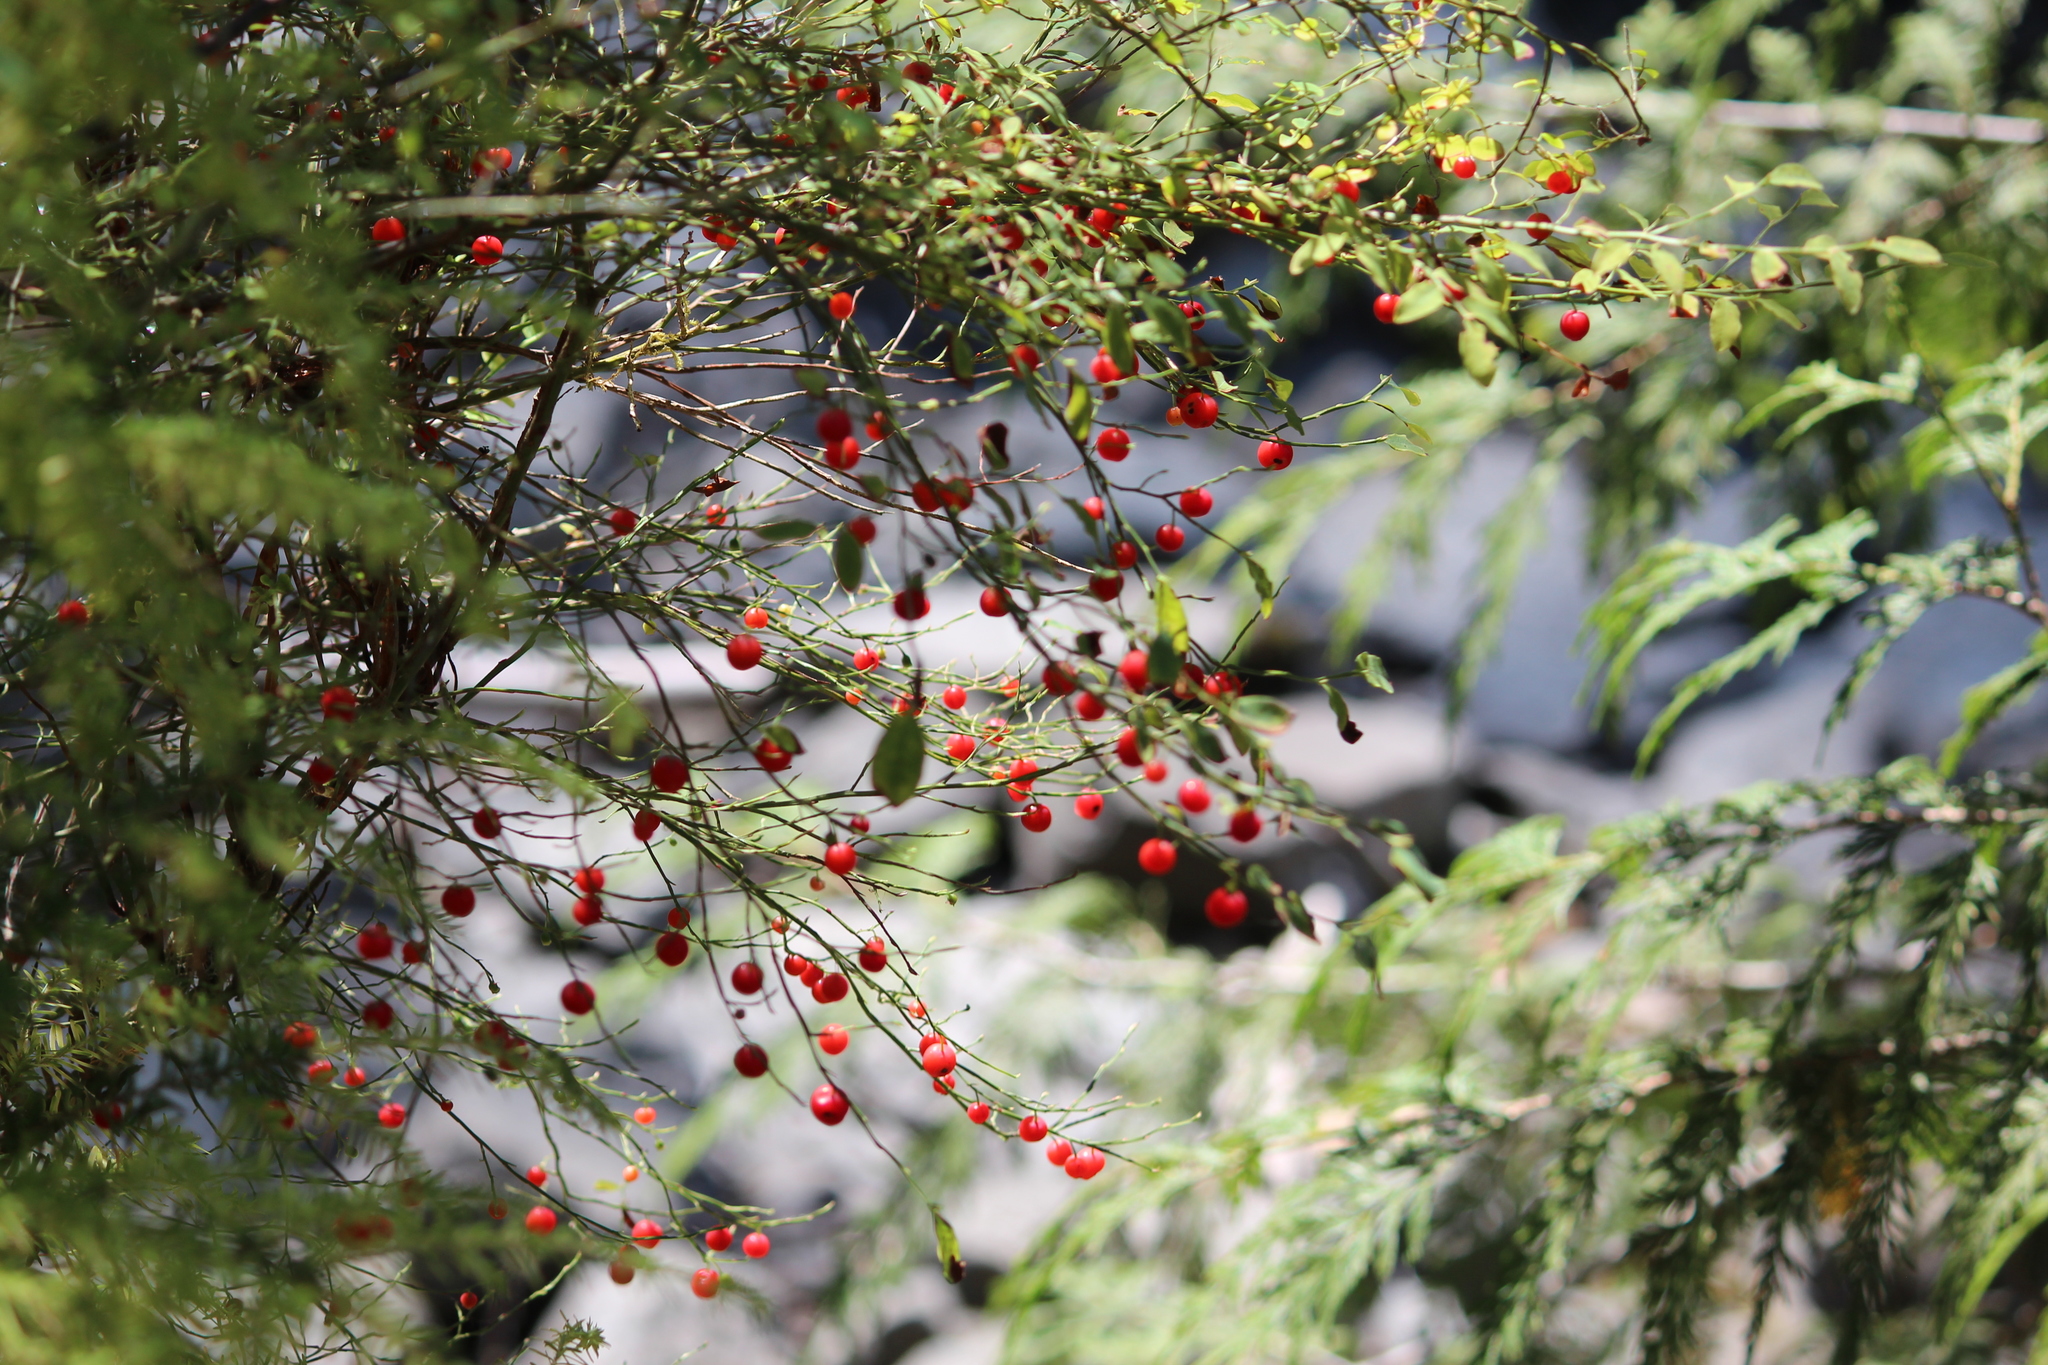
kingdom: Plantae
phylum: Tracheophyta
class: Magnoliopsida
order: Ericales
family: Ericaceae
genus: Vaccinium
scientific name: Vaccinium parvifolium
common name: Red-huckleberry
